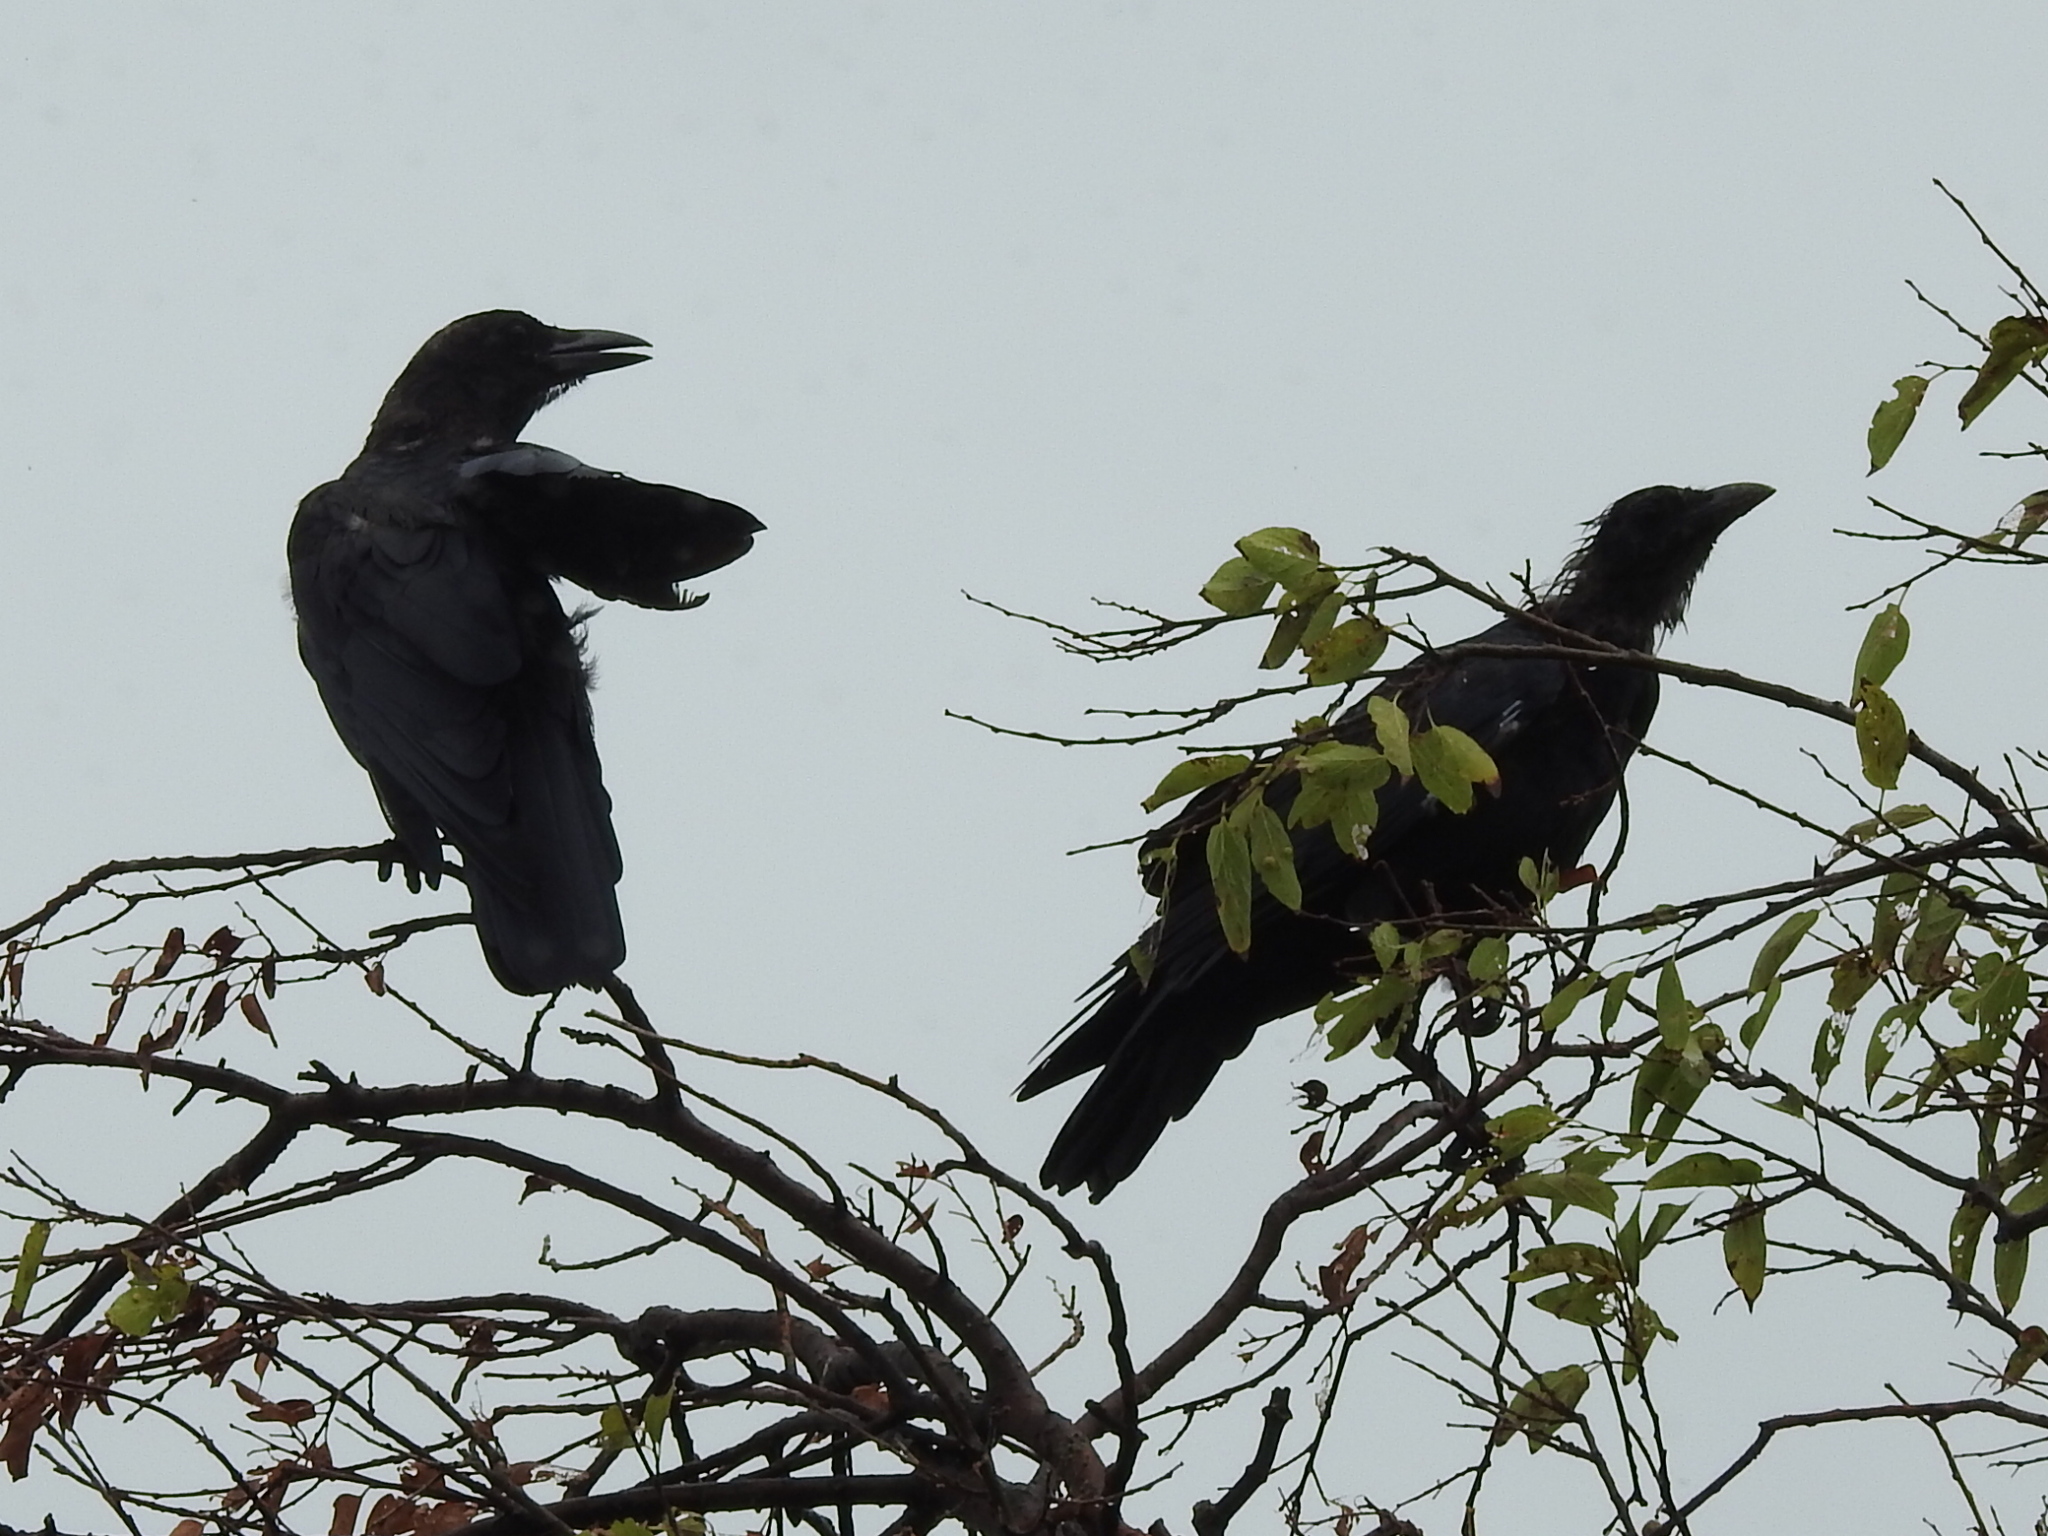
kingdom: Animalia
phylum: Chordata
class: Aves
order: Passeriformes
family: Corvidae
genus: Corvus
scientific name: Corvus brachyrhynchos
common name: American crow
